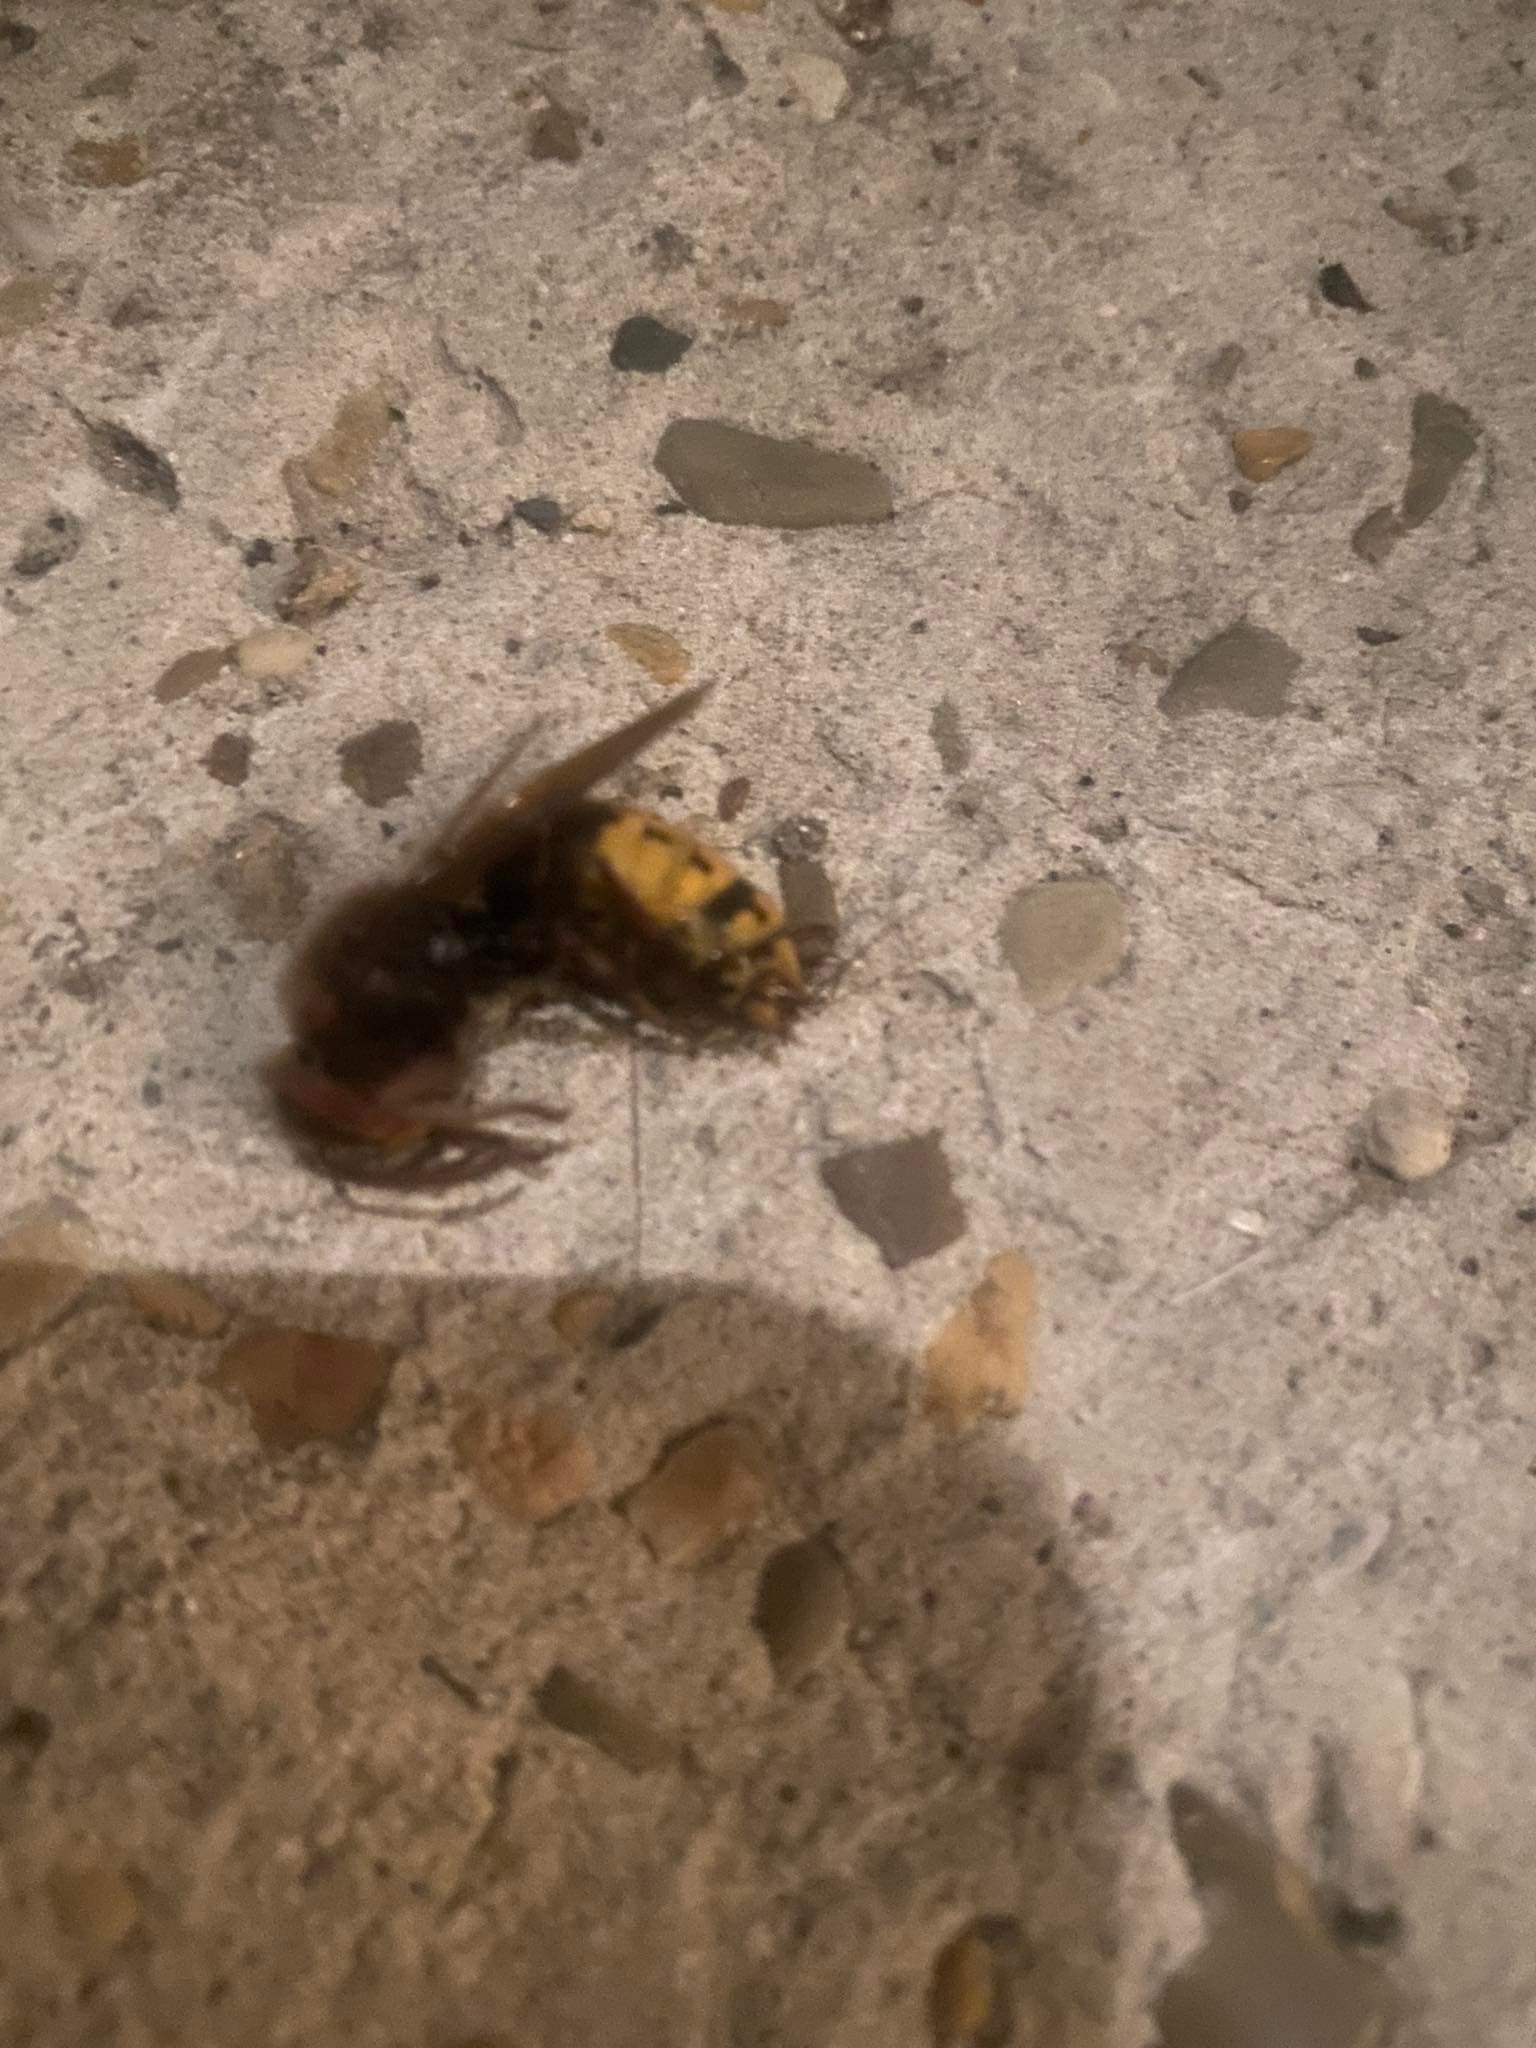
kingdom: Animalia
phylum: Arthropoda
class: Insecta
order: Hymenoptera
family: Vespidae
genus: Vespa
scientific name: Vespa crabro
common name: Hornet
